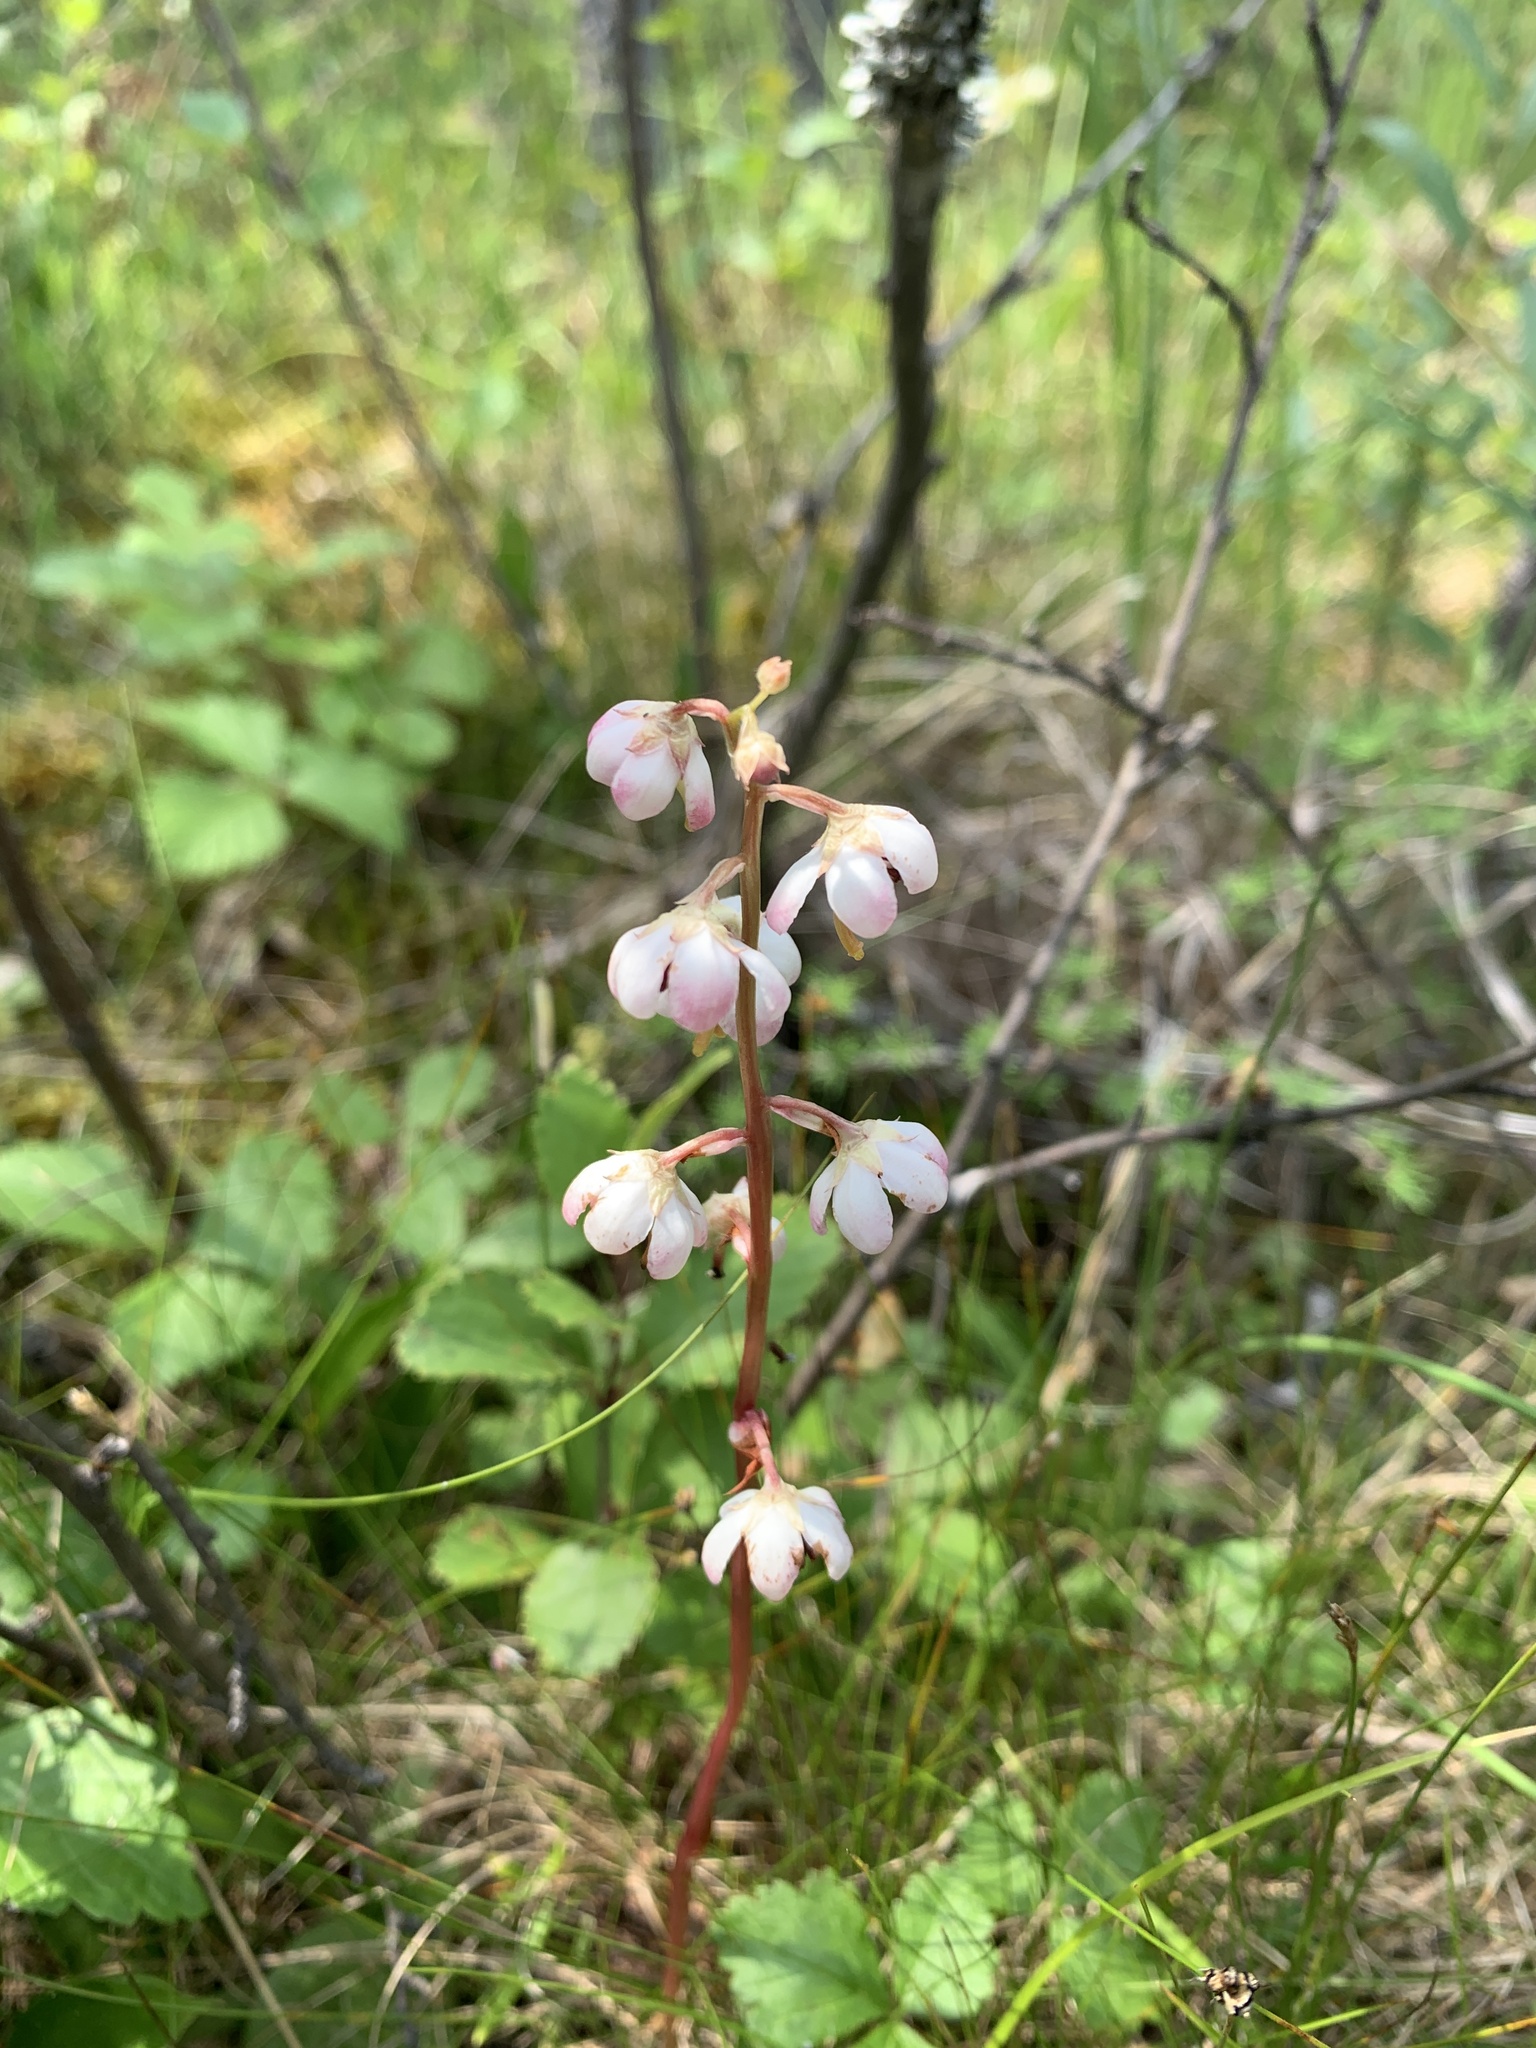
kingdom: Plantae
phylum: Tracheophyta
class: Magnoliopsida
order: Ericales
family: Ericaceae
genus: Pyrola
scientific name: Pyrola asarifolia
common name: Bog wintergreen
